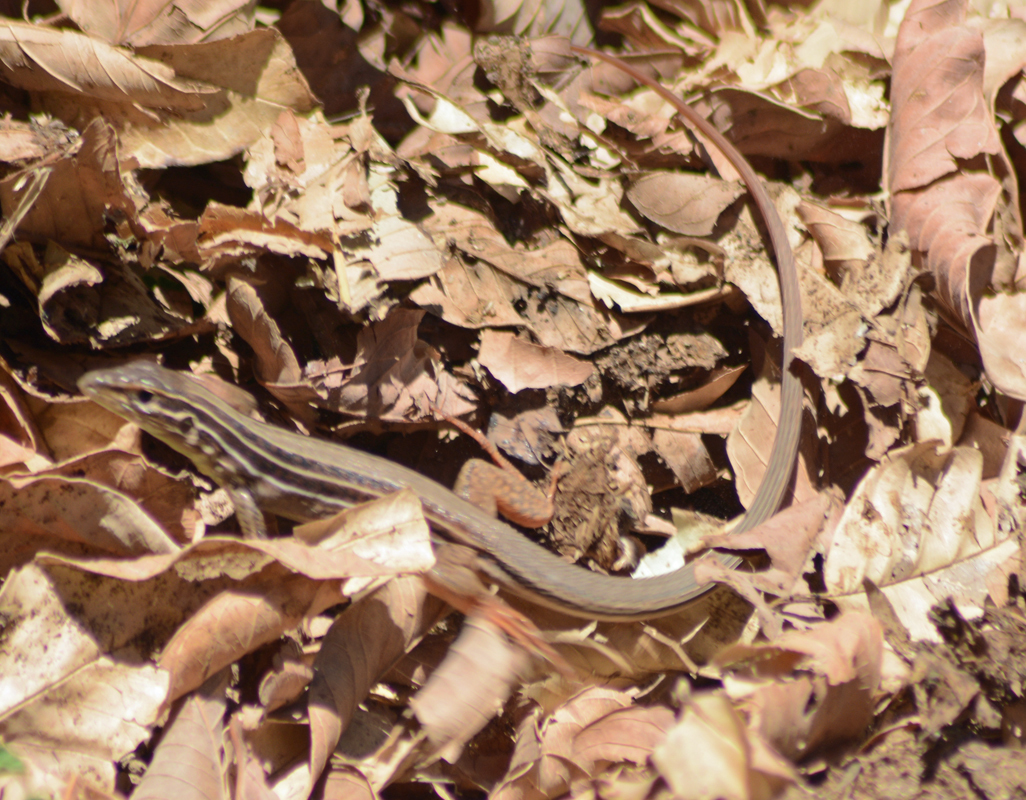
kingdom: Animalia
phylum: Chordata
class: Squamata
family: Teiidae
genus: Aspidoscelis
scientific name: Aspidoscelis costatus
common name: Western mexico whiptail
